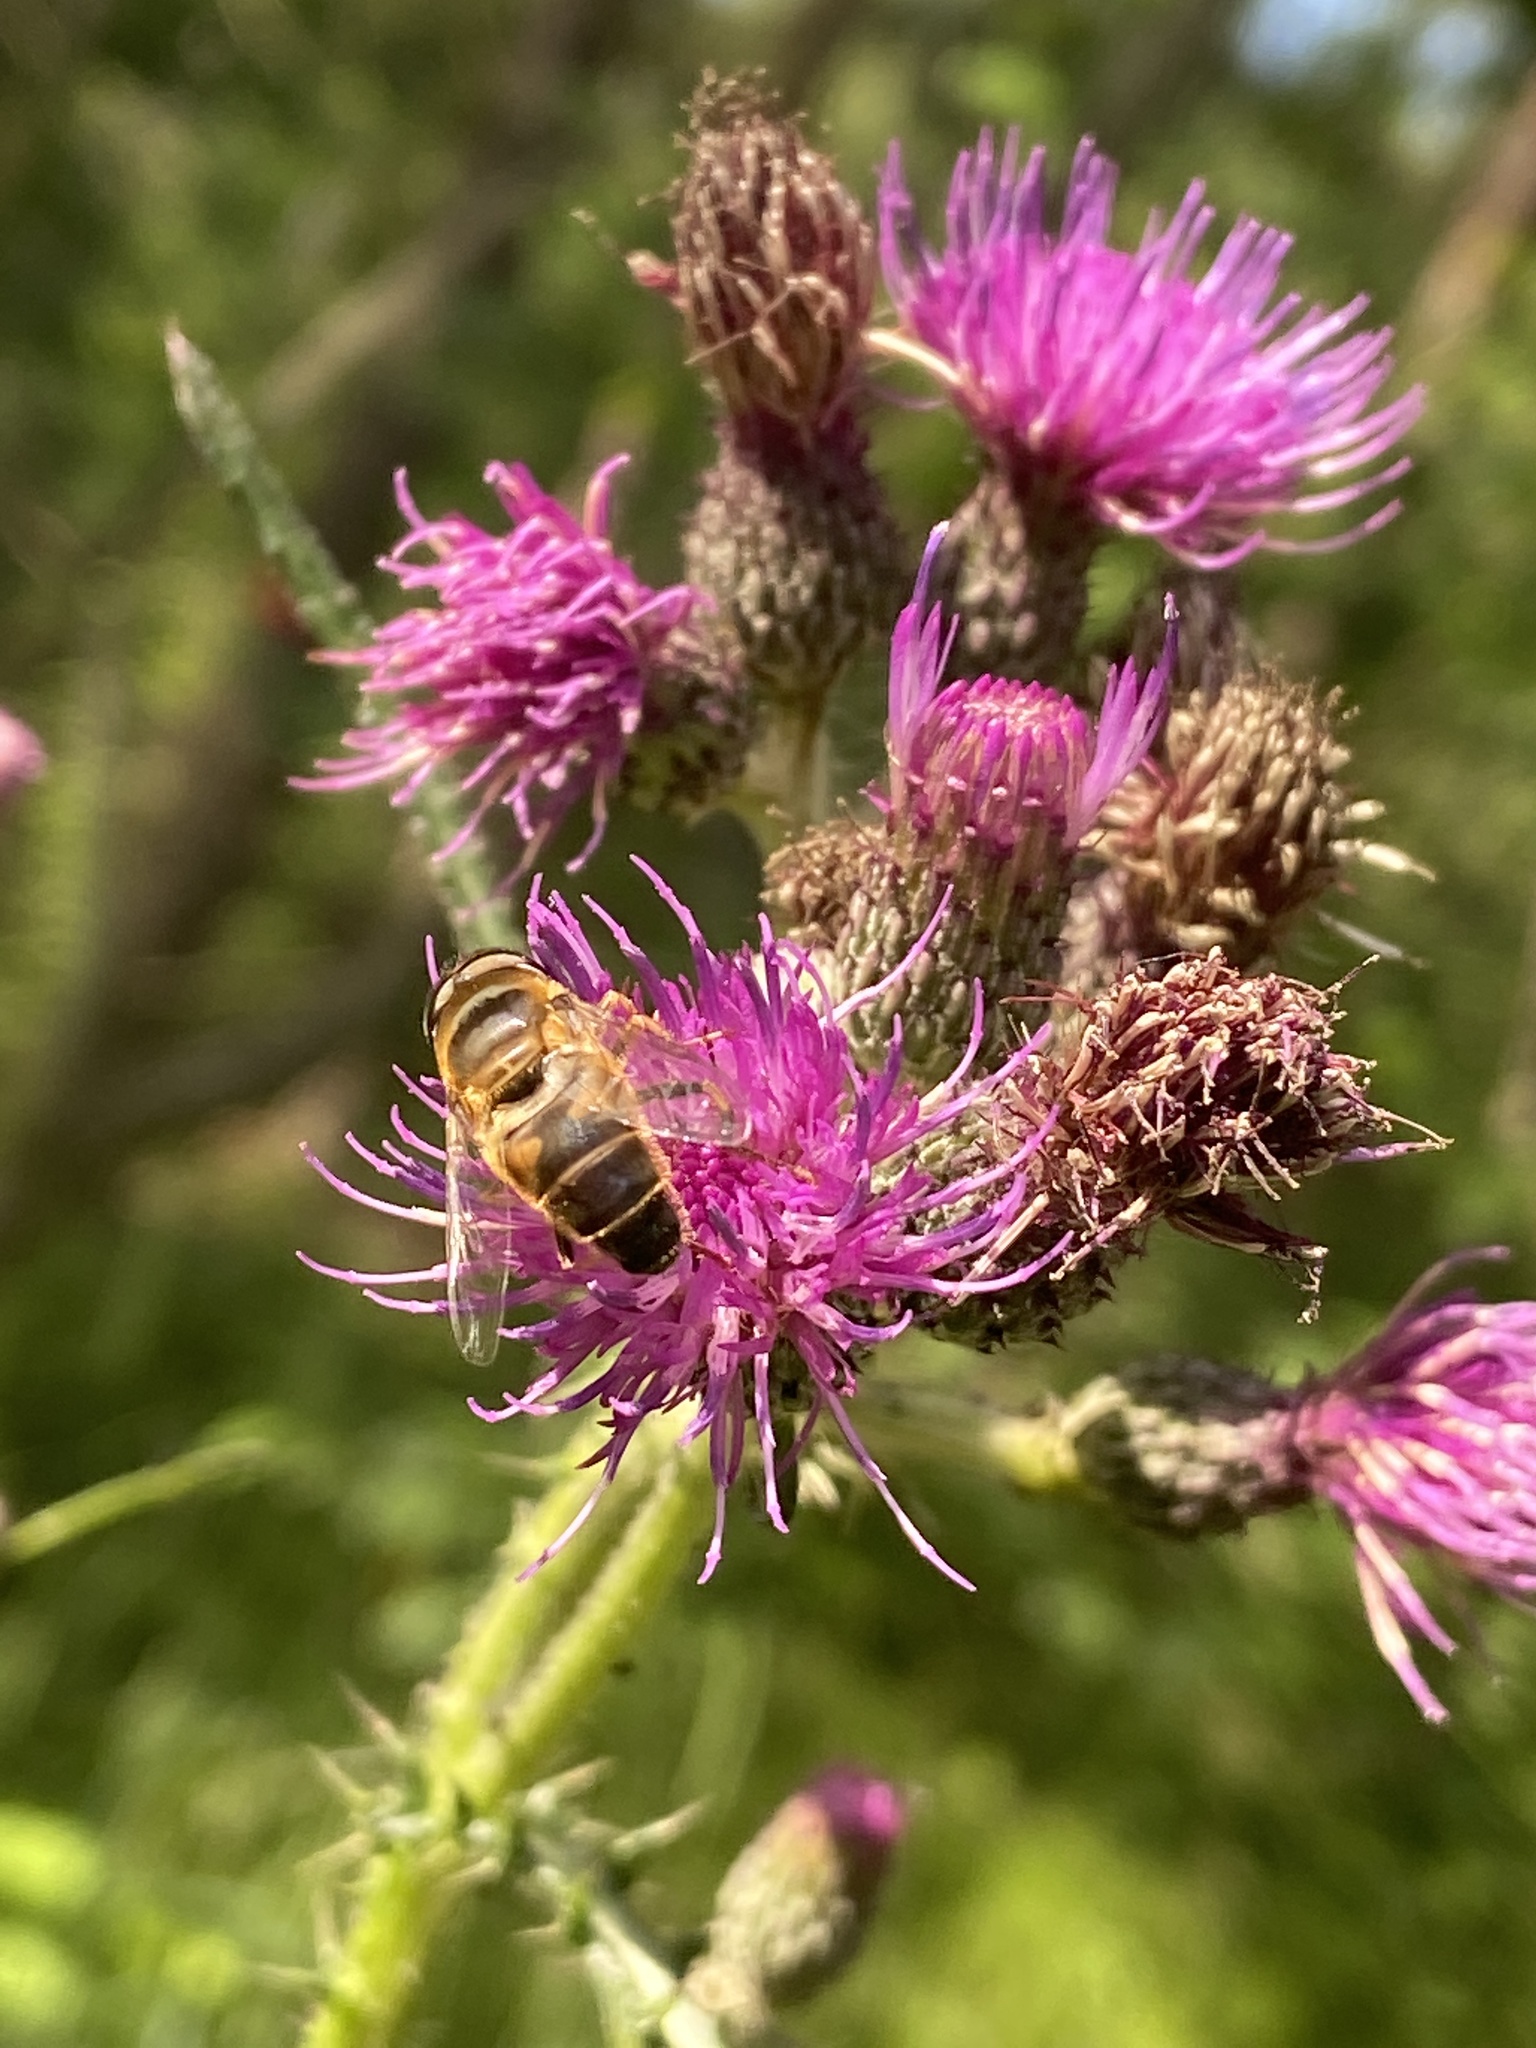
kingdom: Animalia
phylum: Arthropoda
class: Insecta
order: Diptera
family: Syrphidae
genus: Eristalis
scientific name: Eristalis pertinax
